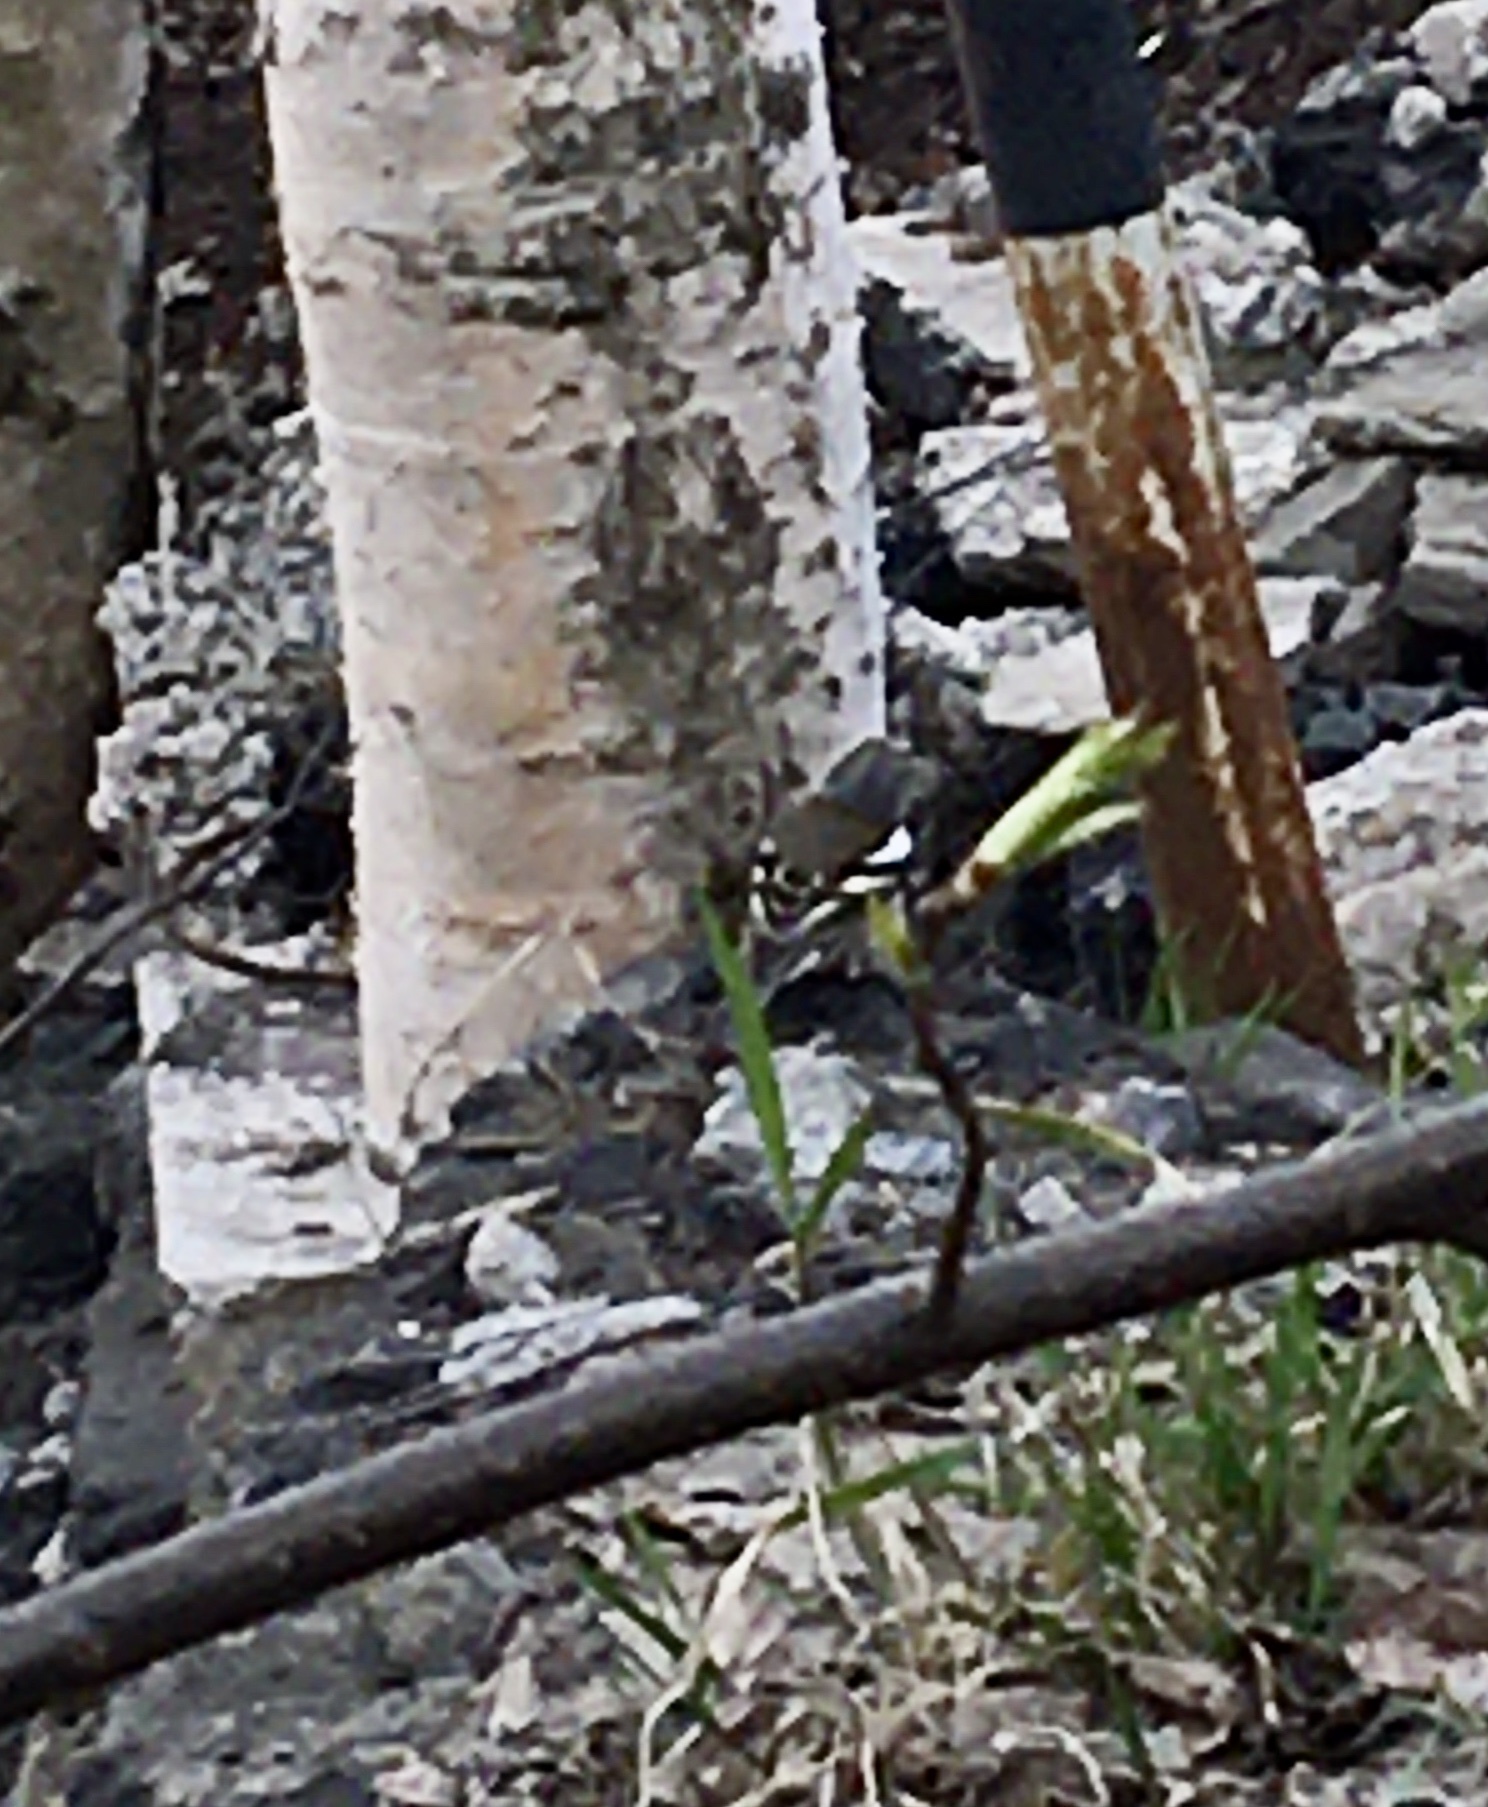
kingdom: Animalia
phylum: Chordata
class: Aves
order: Passeriformes
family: Fringillidae
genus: Fringilla
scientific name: Fringilla coelebs
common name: Common chaffinch
